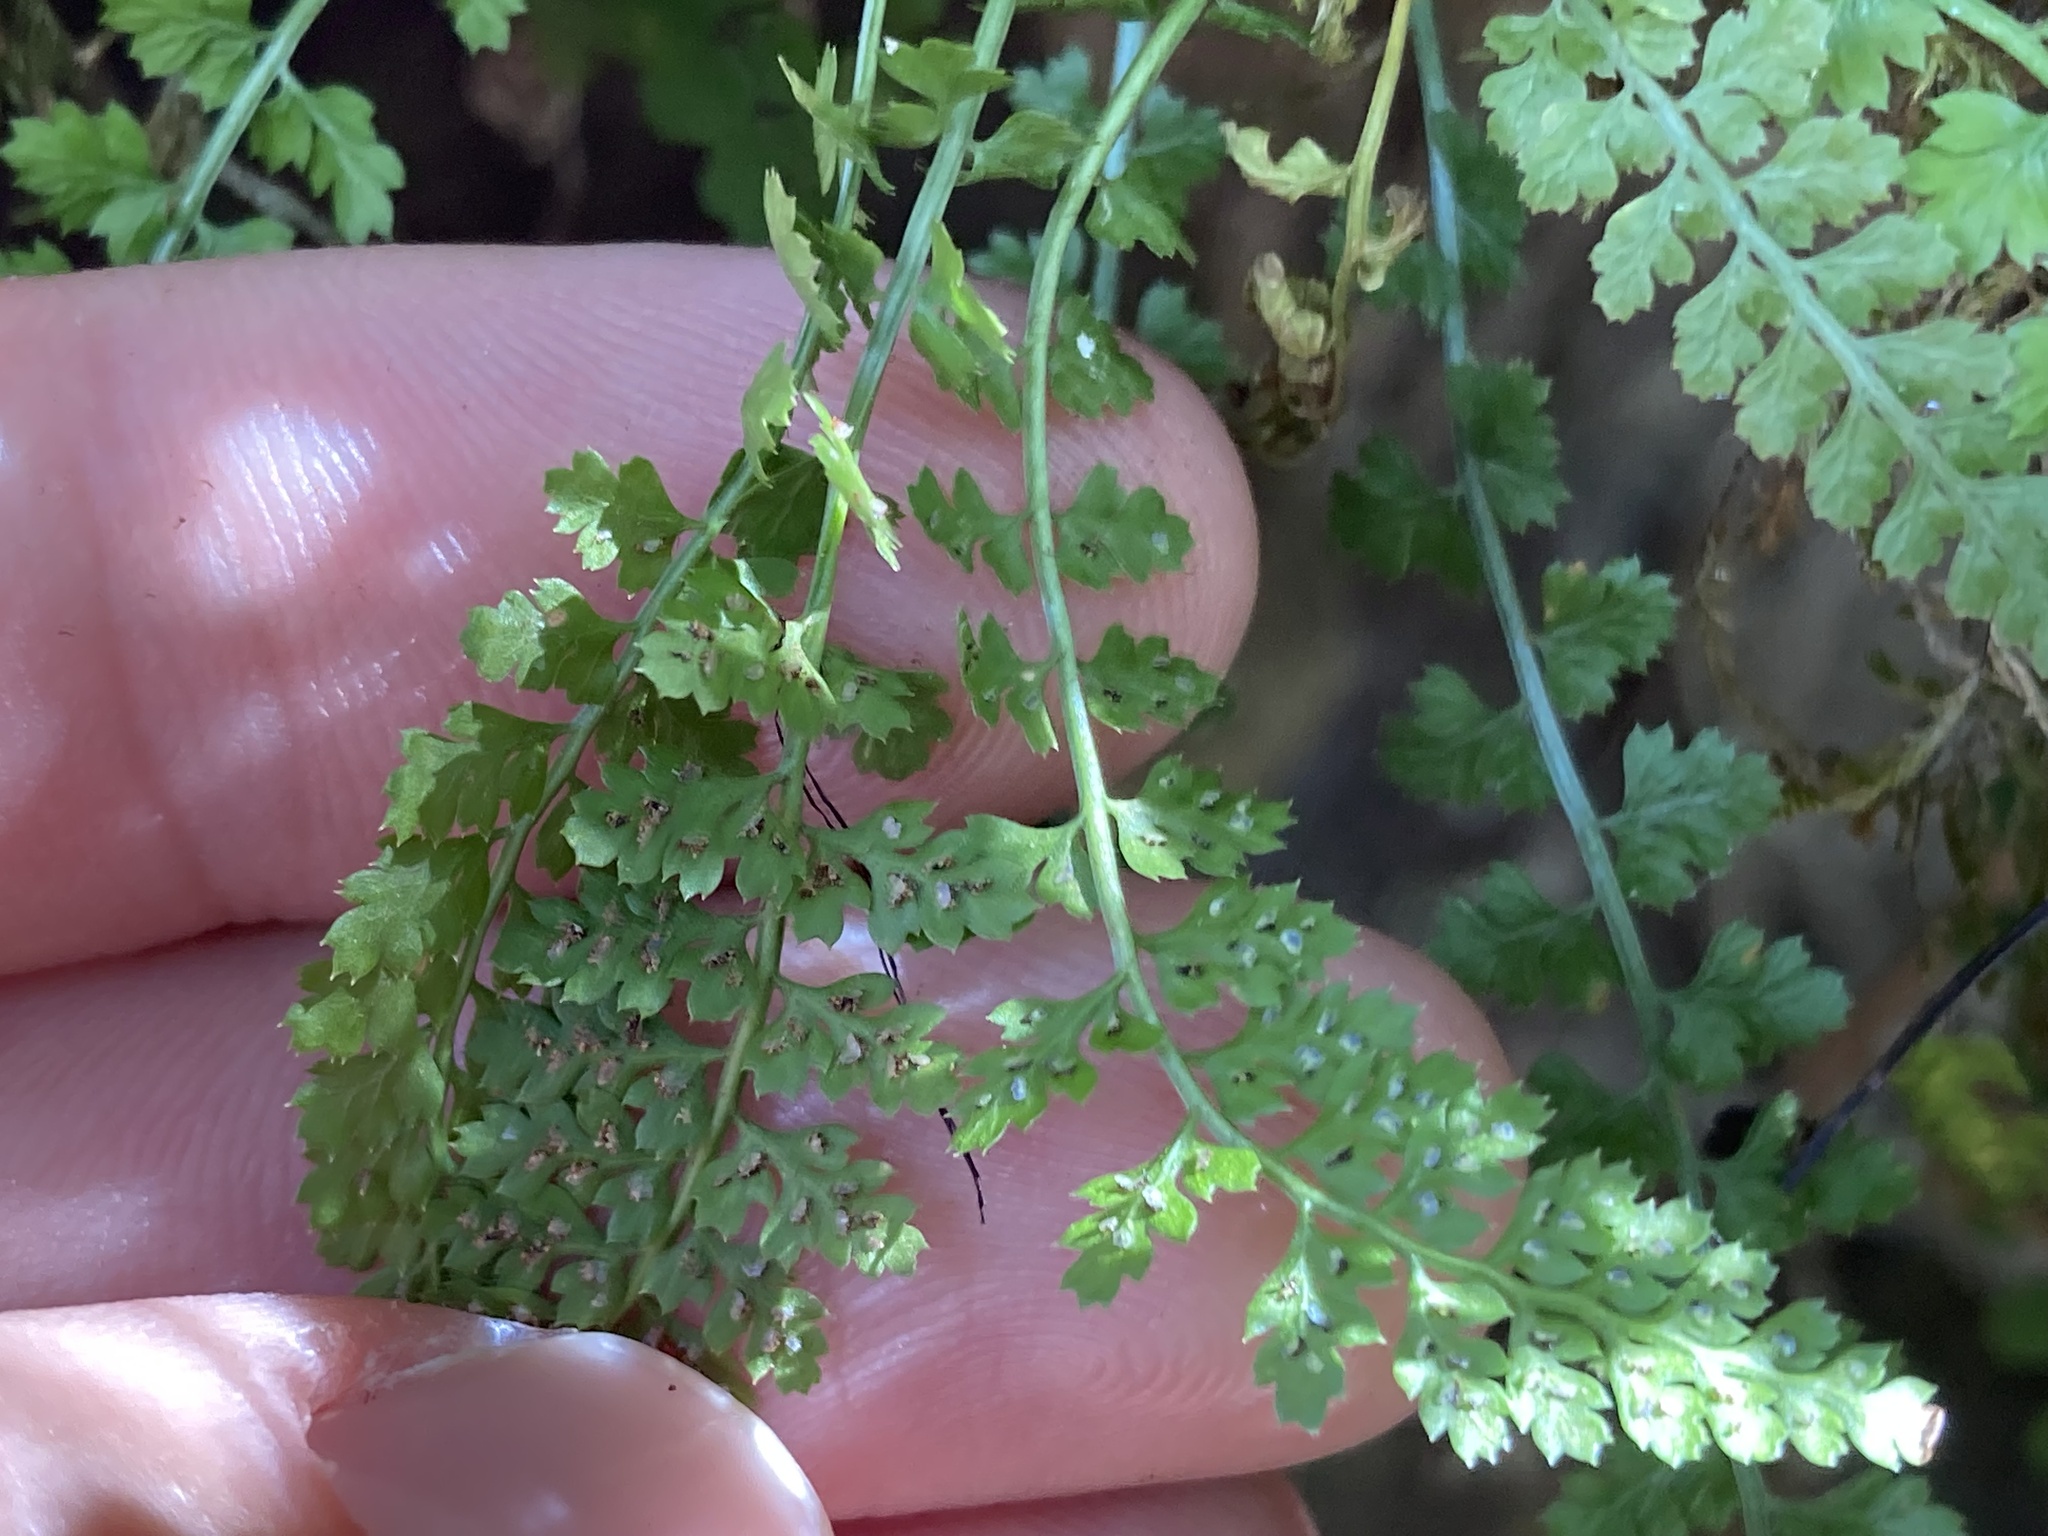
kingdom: Plantae
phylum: Tracheophyta
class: Polypodiopsida
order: Polypodiales
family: Aspleniaceae
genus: Asplenium
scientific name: Asplenium fontanum
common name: Fountain spleenwort
